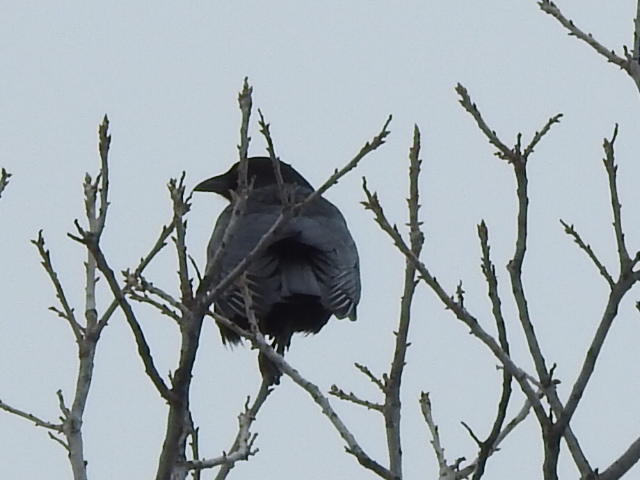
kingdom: Animalia
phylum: Chordata
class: Aves
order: Passeriformes
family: Corvidae
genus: Corvus
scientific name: Corvus brachyrhynchos
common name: American crow
